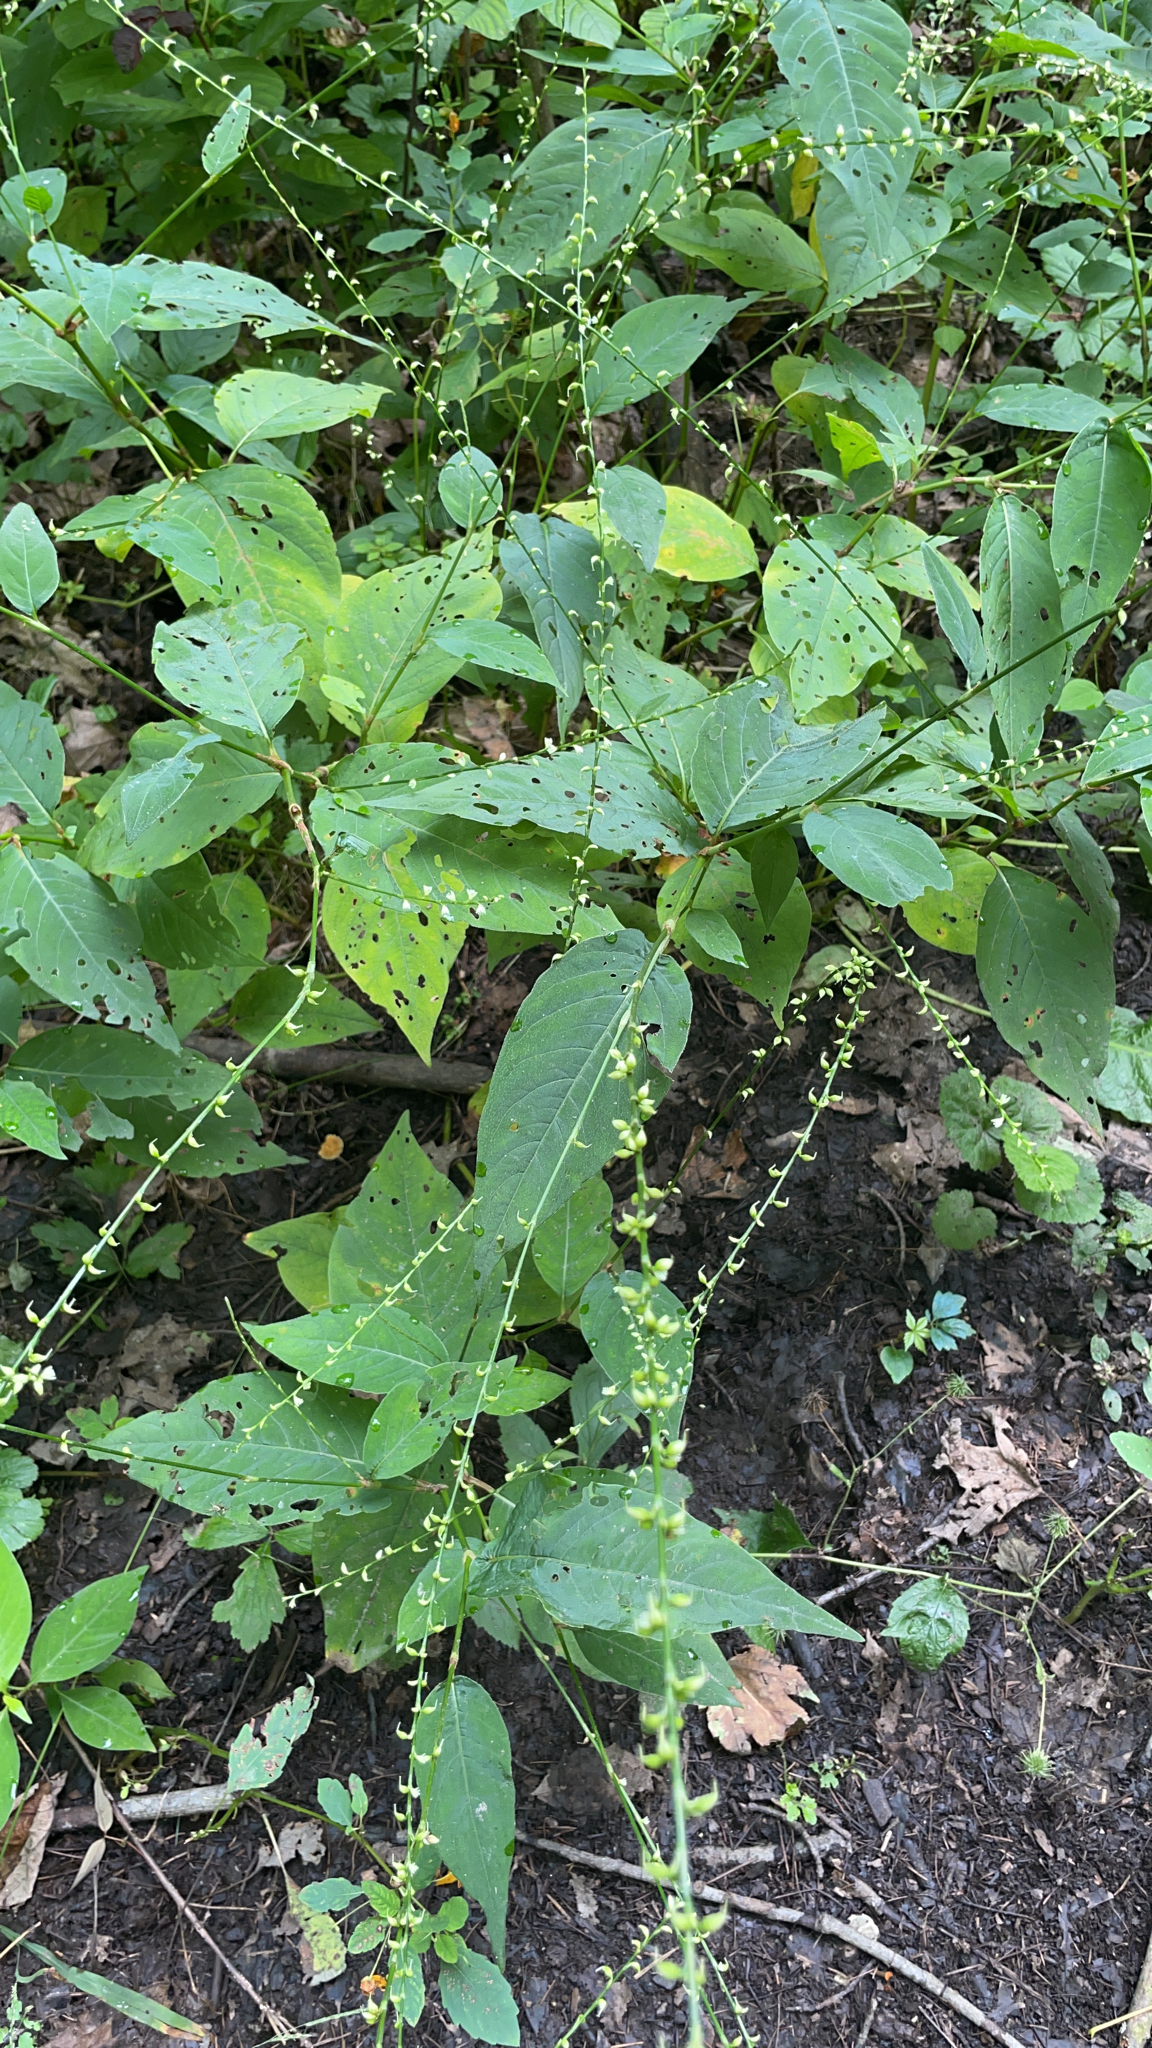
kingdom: Plantae
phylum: Tracheophyta
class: Magnoliopsida
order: Caryophyllales
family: Polygonaceae
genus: Persicaria
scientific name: Persicaria virginiana
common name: Jumpseed
